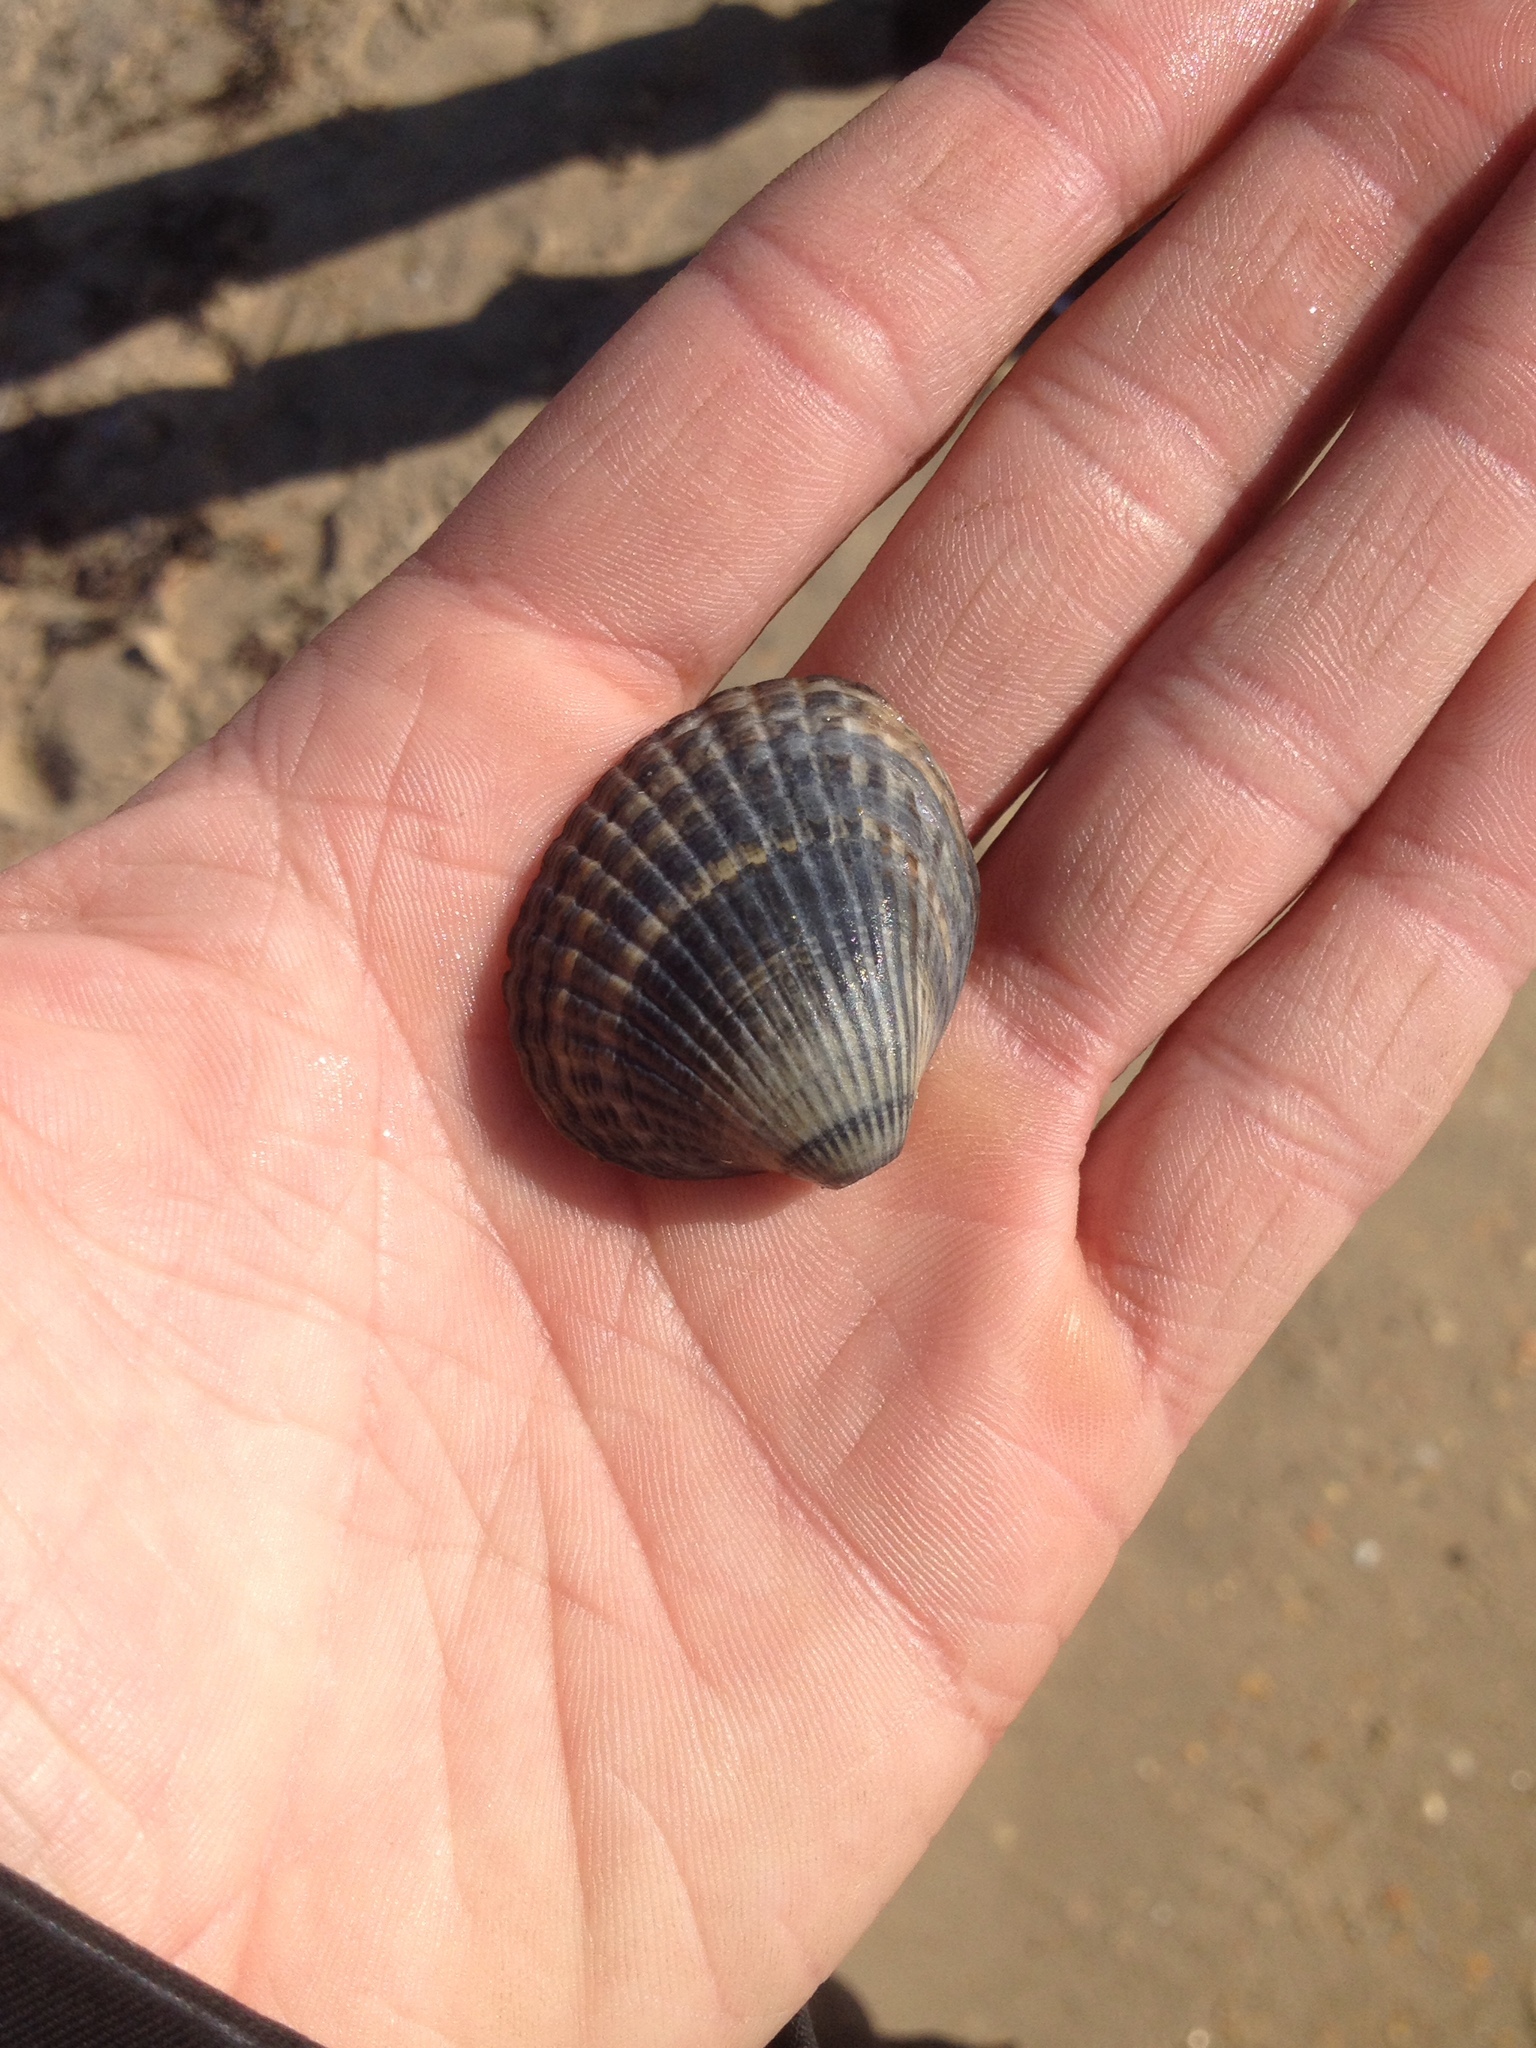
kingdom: Animalia
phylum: Mollusca
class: Bivalvia
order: Cardiida
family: Cardiidae
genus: Cerastoderma
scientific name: Cerastoderma glaucum
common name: Lagoon cockle
